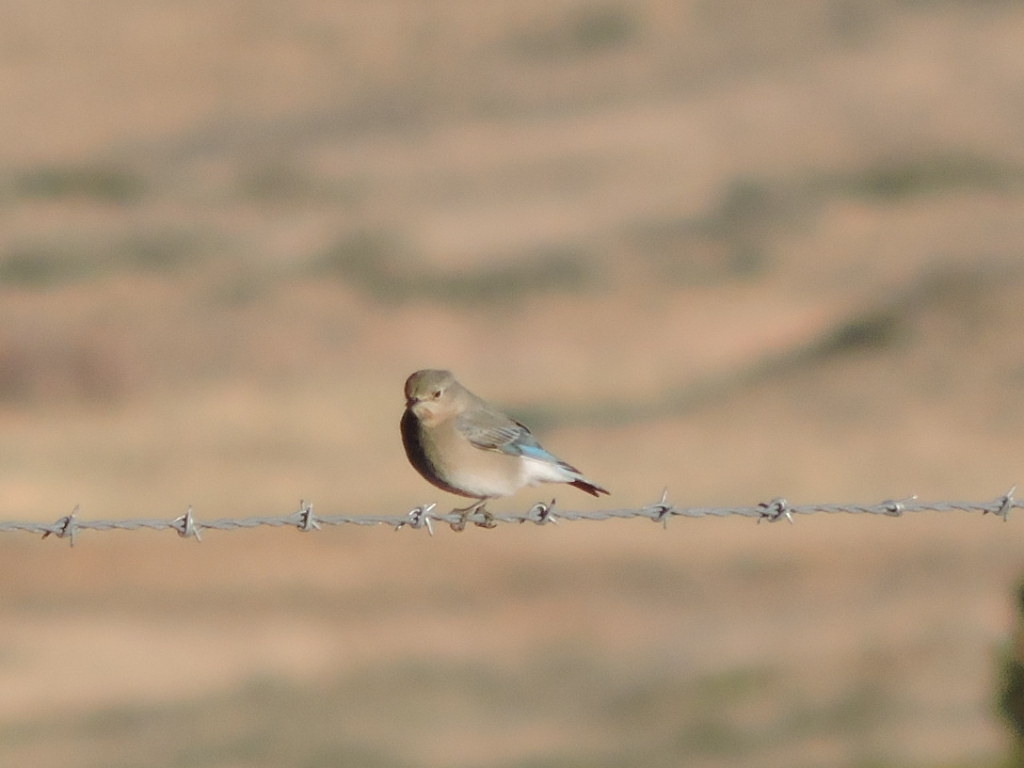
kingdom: Animalia
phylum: Chordata
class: Aves
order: Passeriformes
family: Turdidae
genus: Sialia
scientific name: Sialia currucoides
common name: Mountain bluebird
